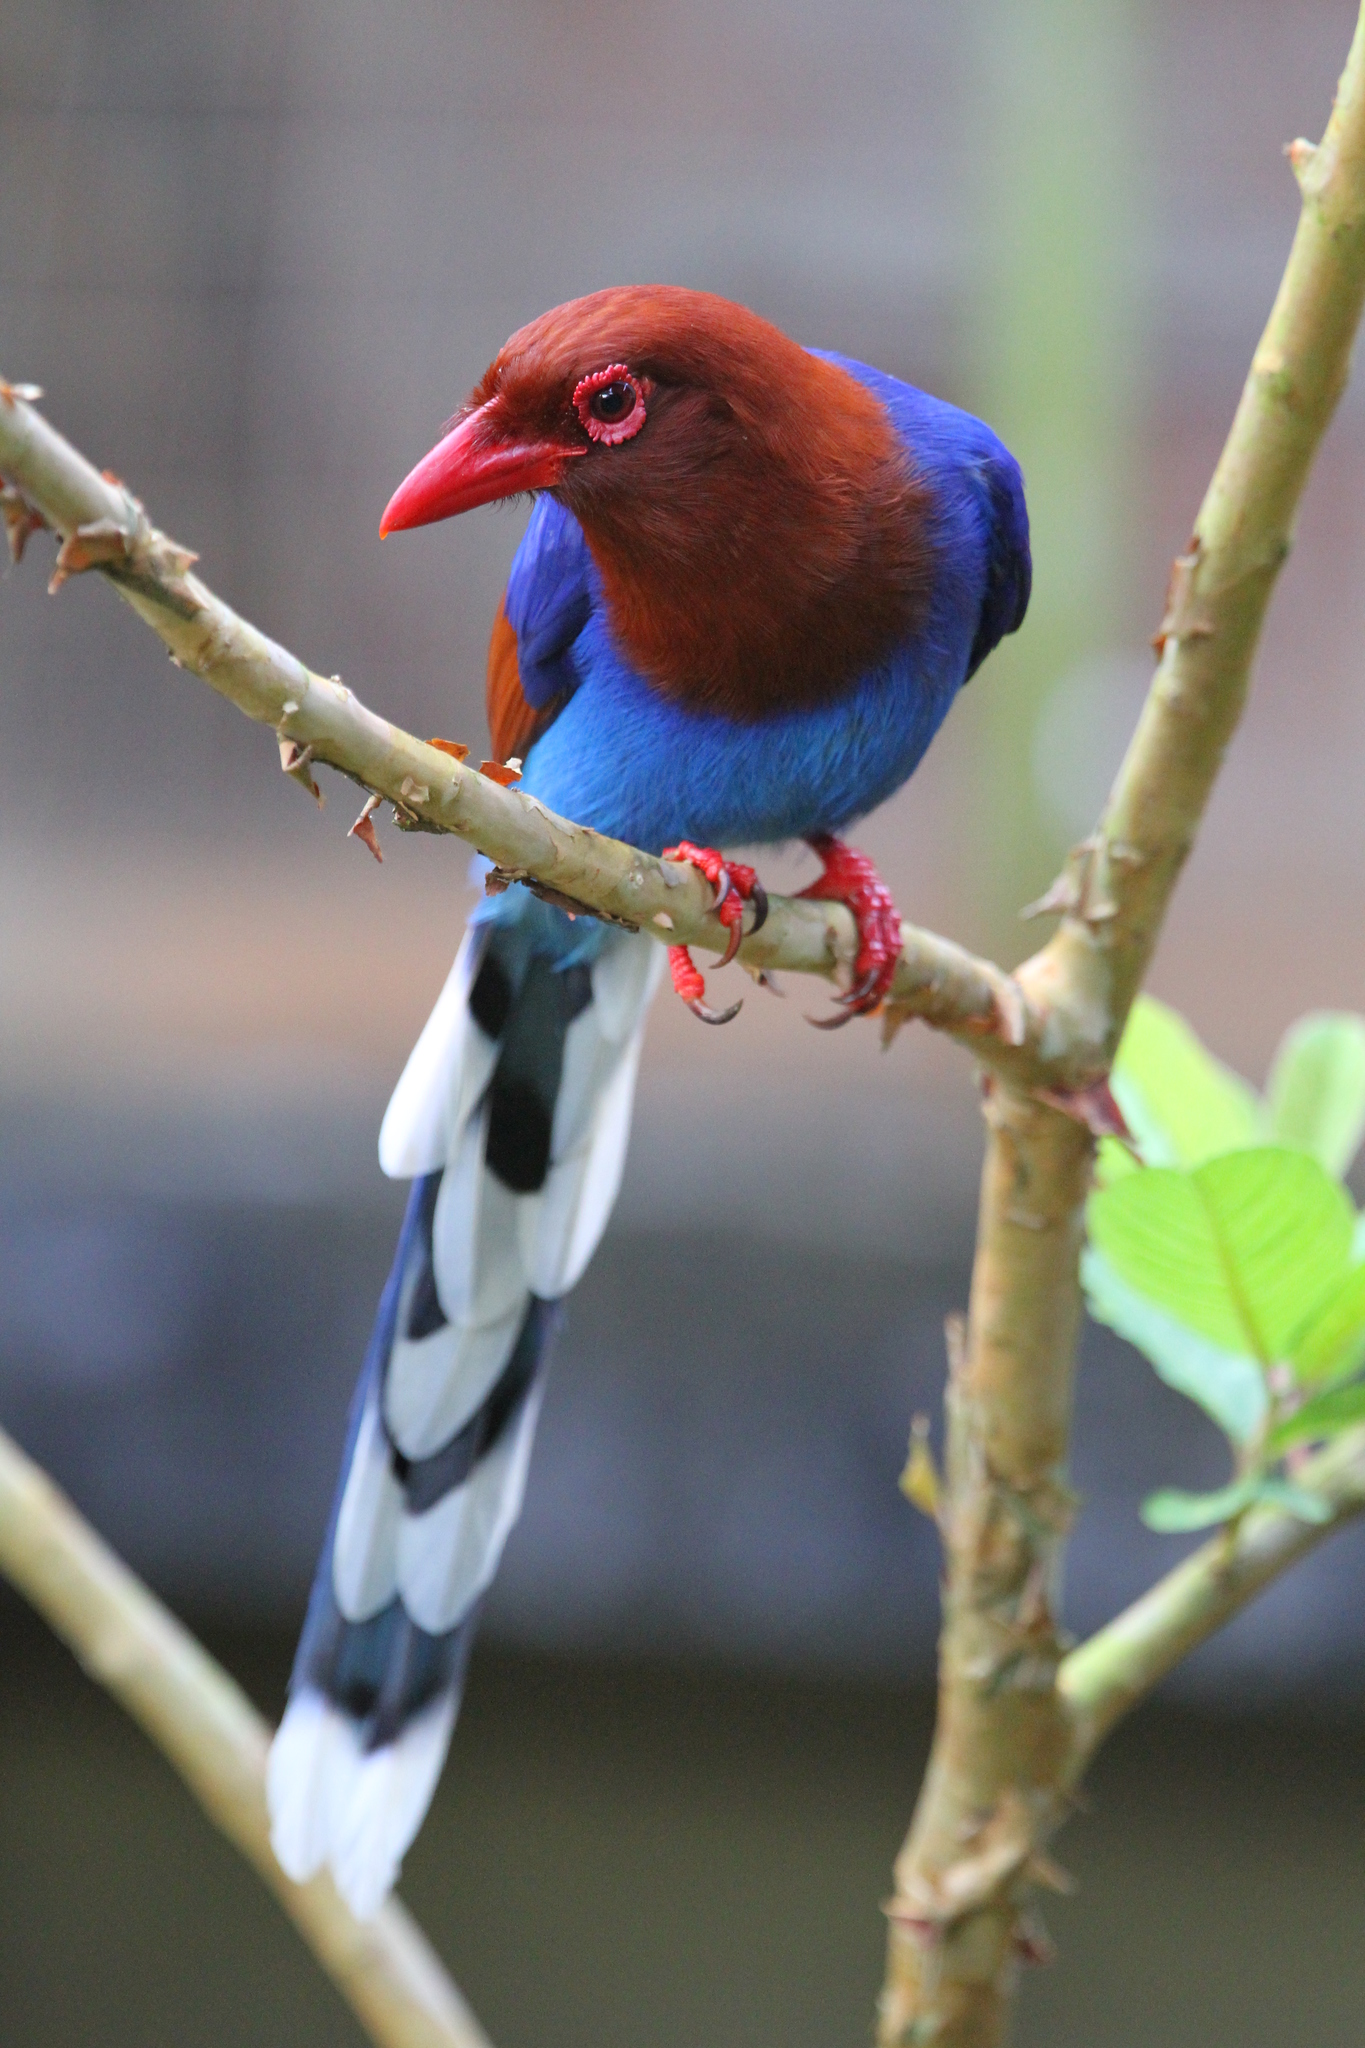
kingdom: Animalia
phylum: Chordata
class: Aves
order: Passeriformes
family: Corvidae
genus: Urocissa
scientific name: Urocissa ornata
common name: Sri lanka blue magpie
